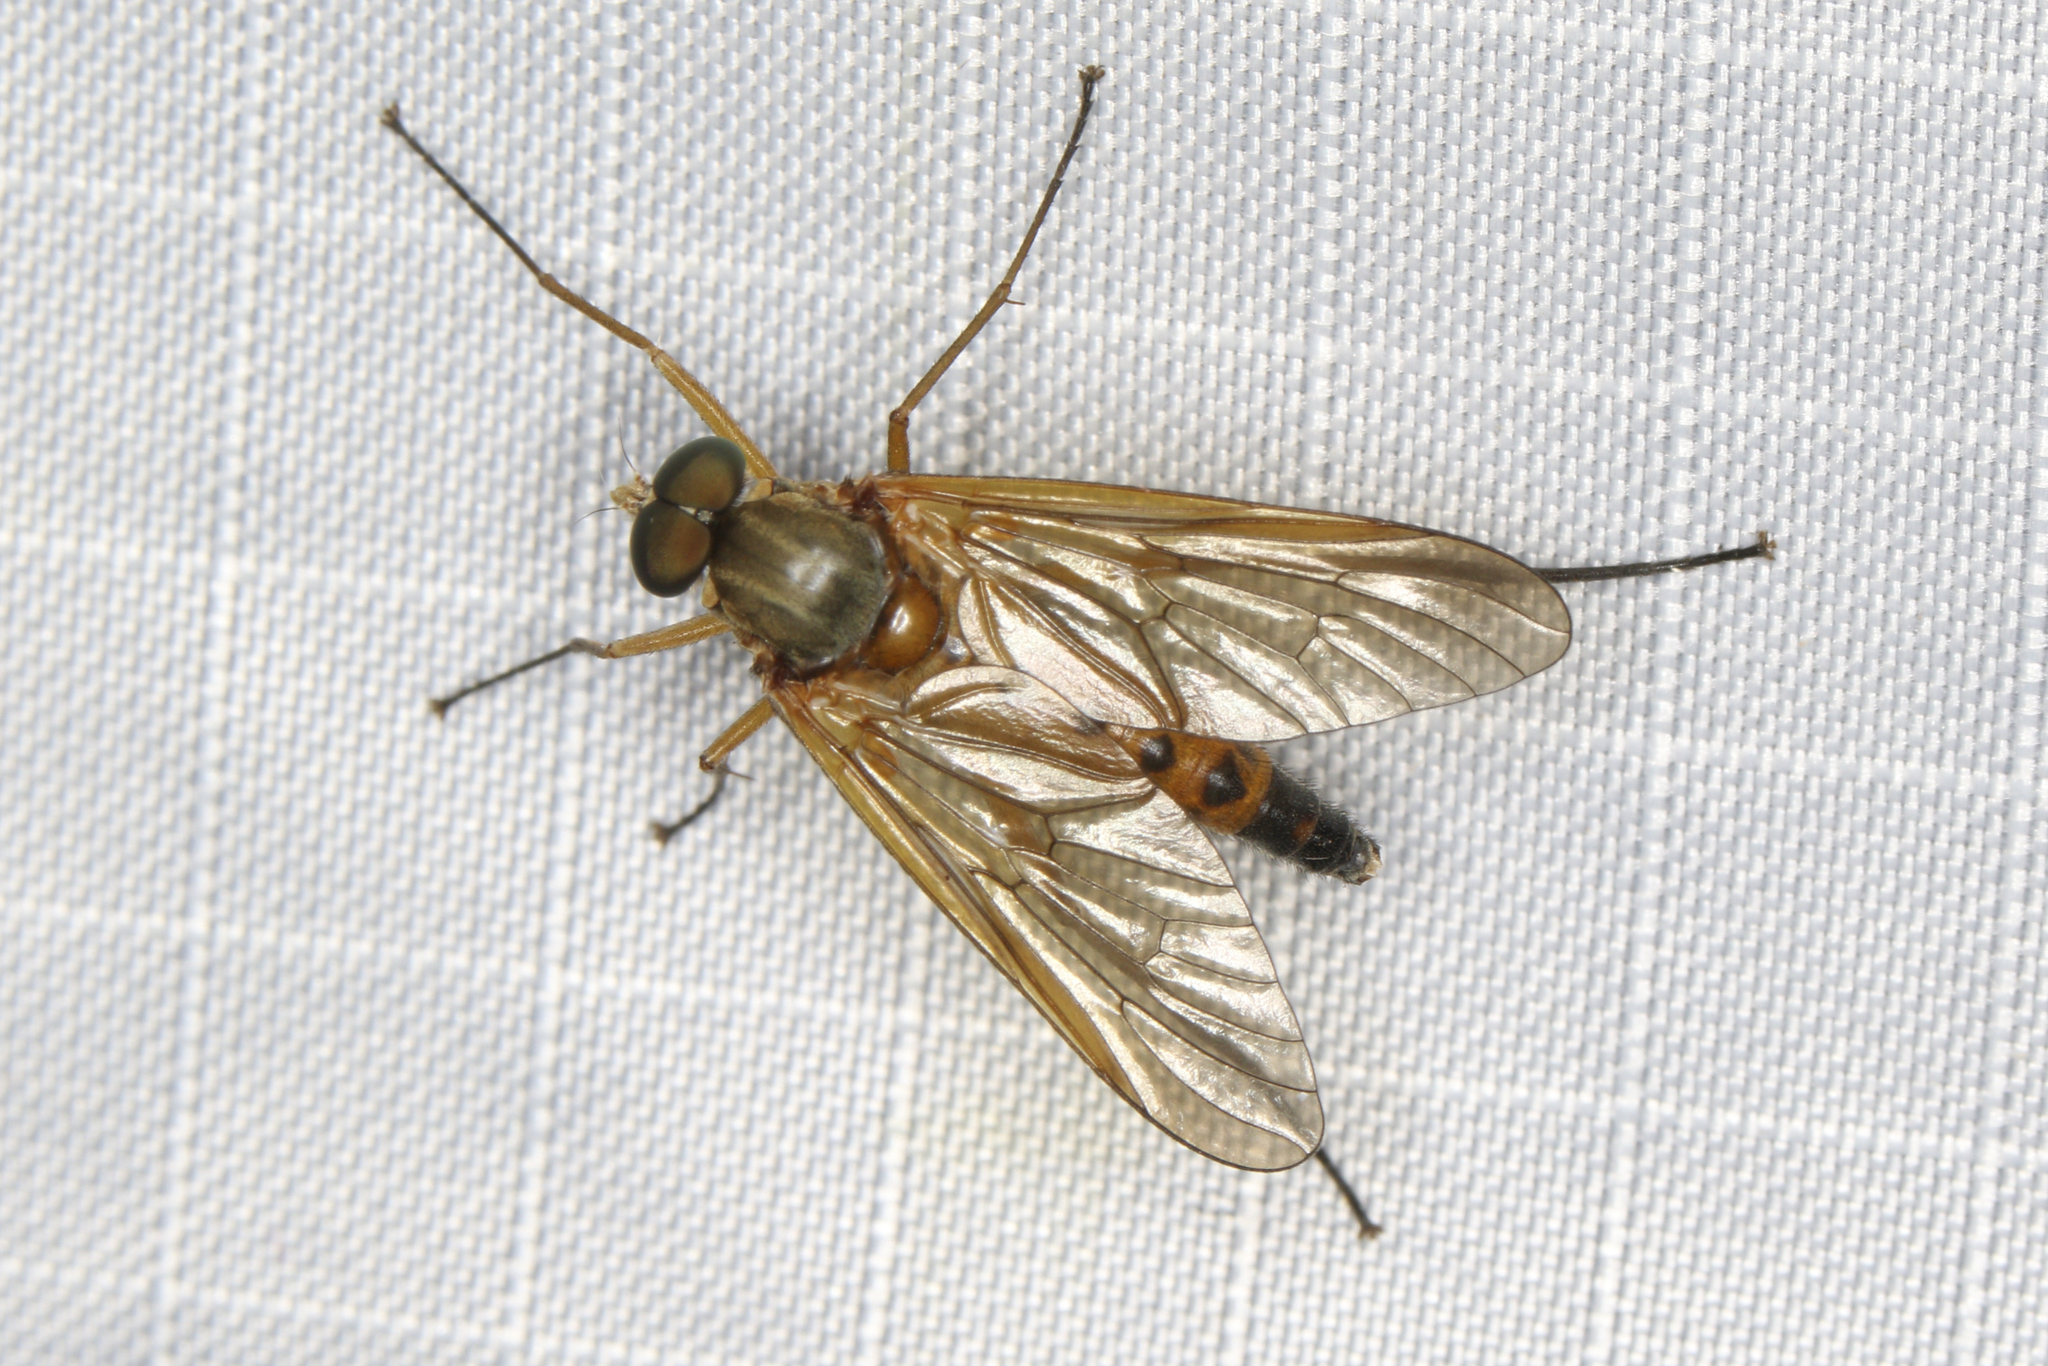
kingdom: Animalia
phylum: Arthropoda
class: Insecta
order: Diptera
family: Rhagionidae
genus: Rhagio
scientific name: Rhagio tringaria
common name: Marsh snipefly
